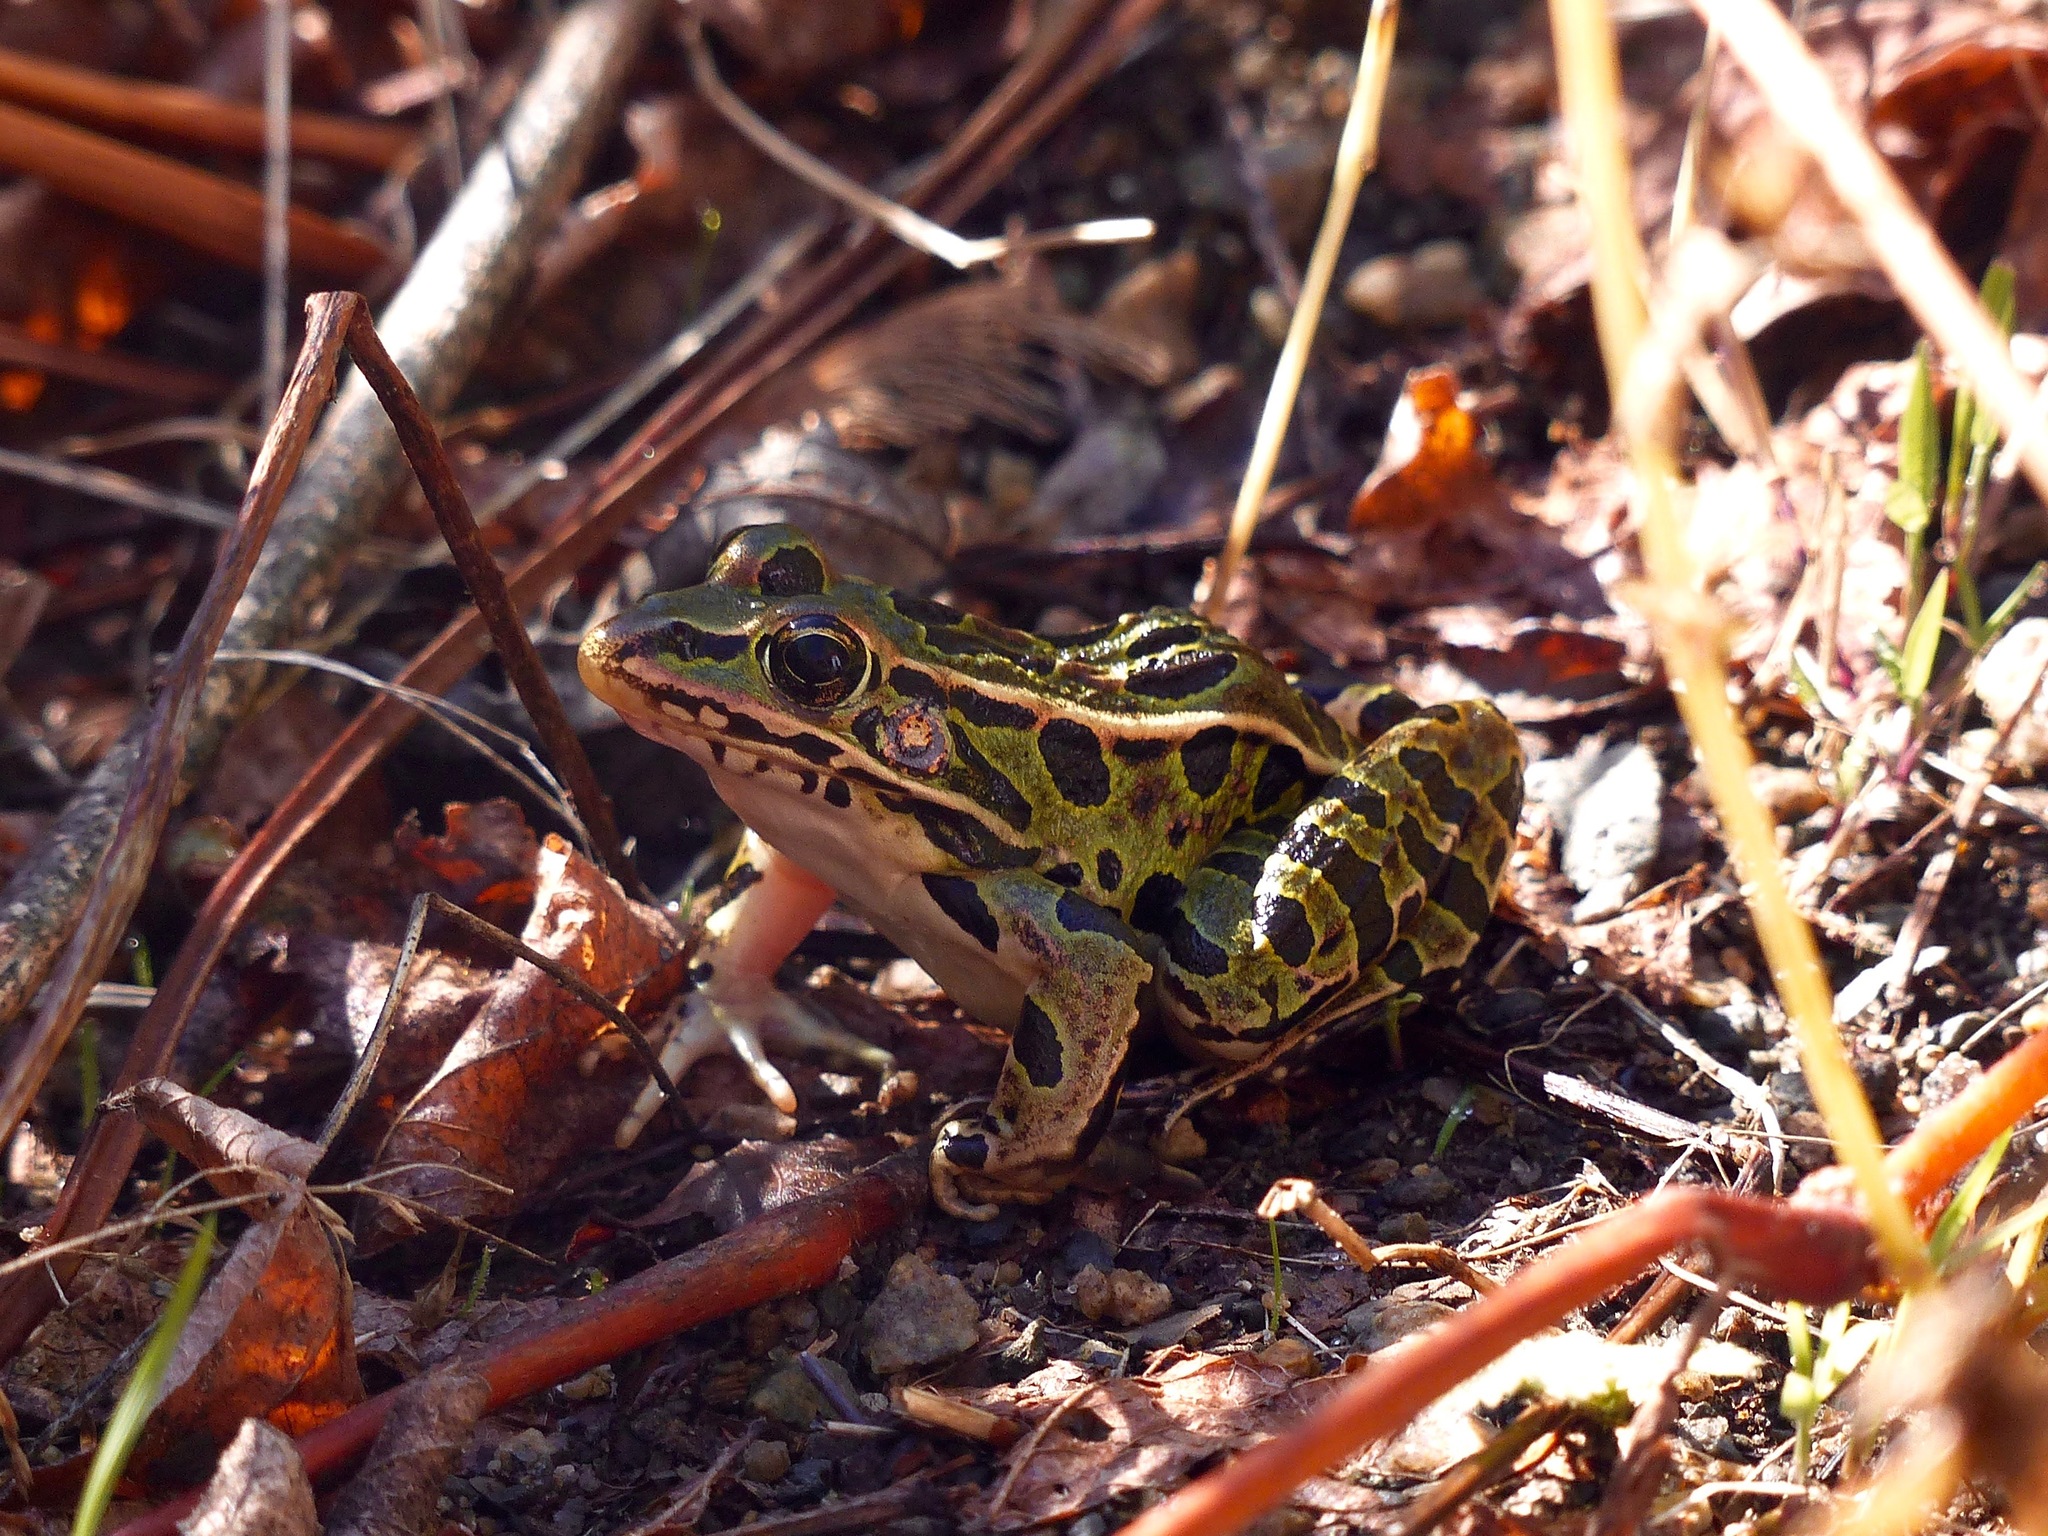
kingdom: Animalia
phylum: Chordata
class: Amphibia
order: Anura
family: Ranidae
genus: Lithobates
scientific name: Lithobates pipiens
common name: Northern leopard frog
